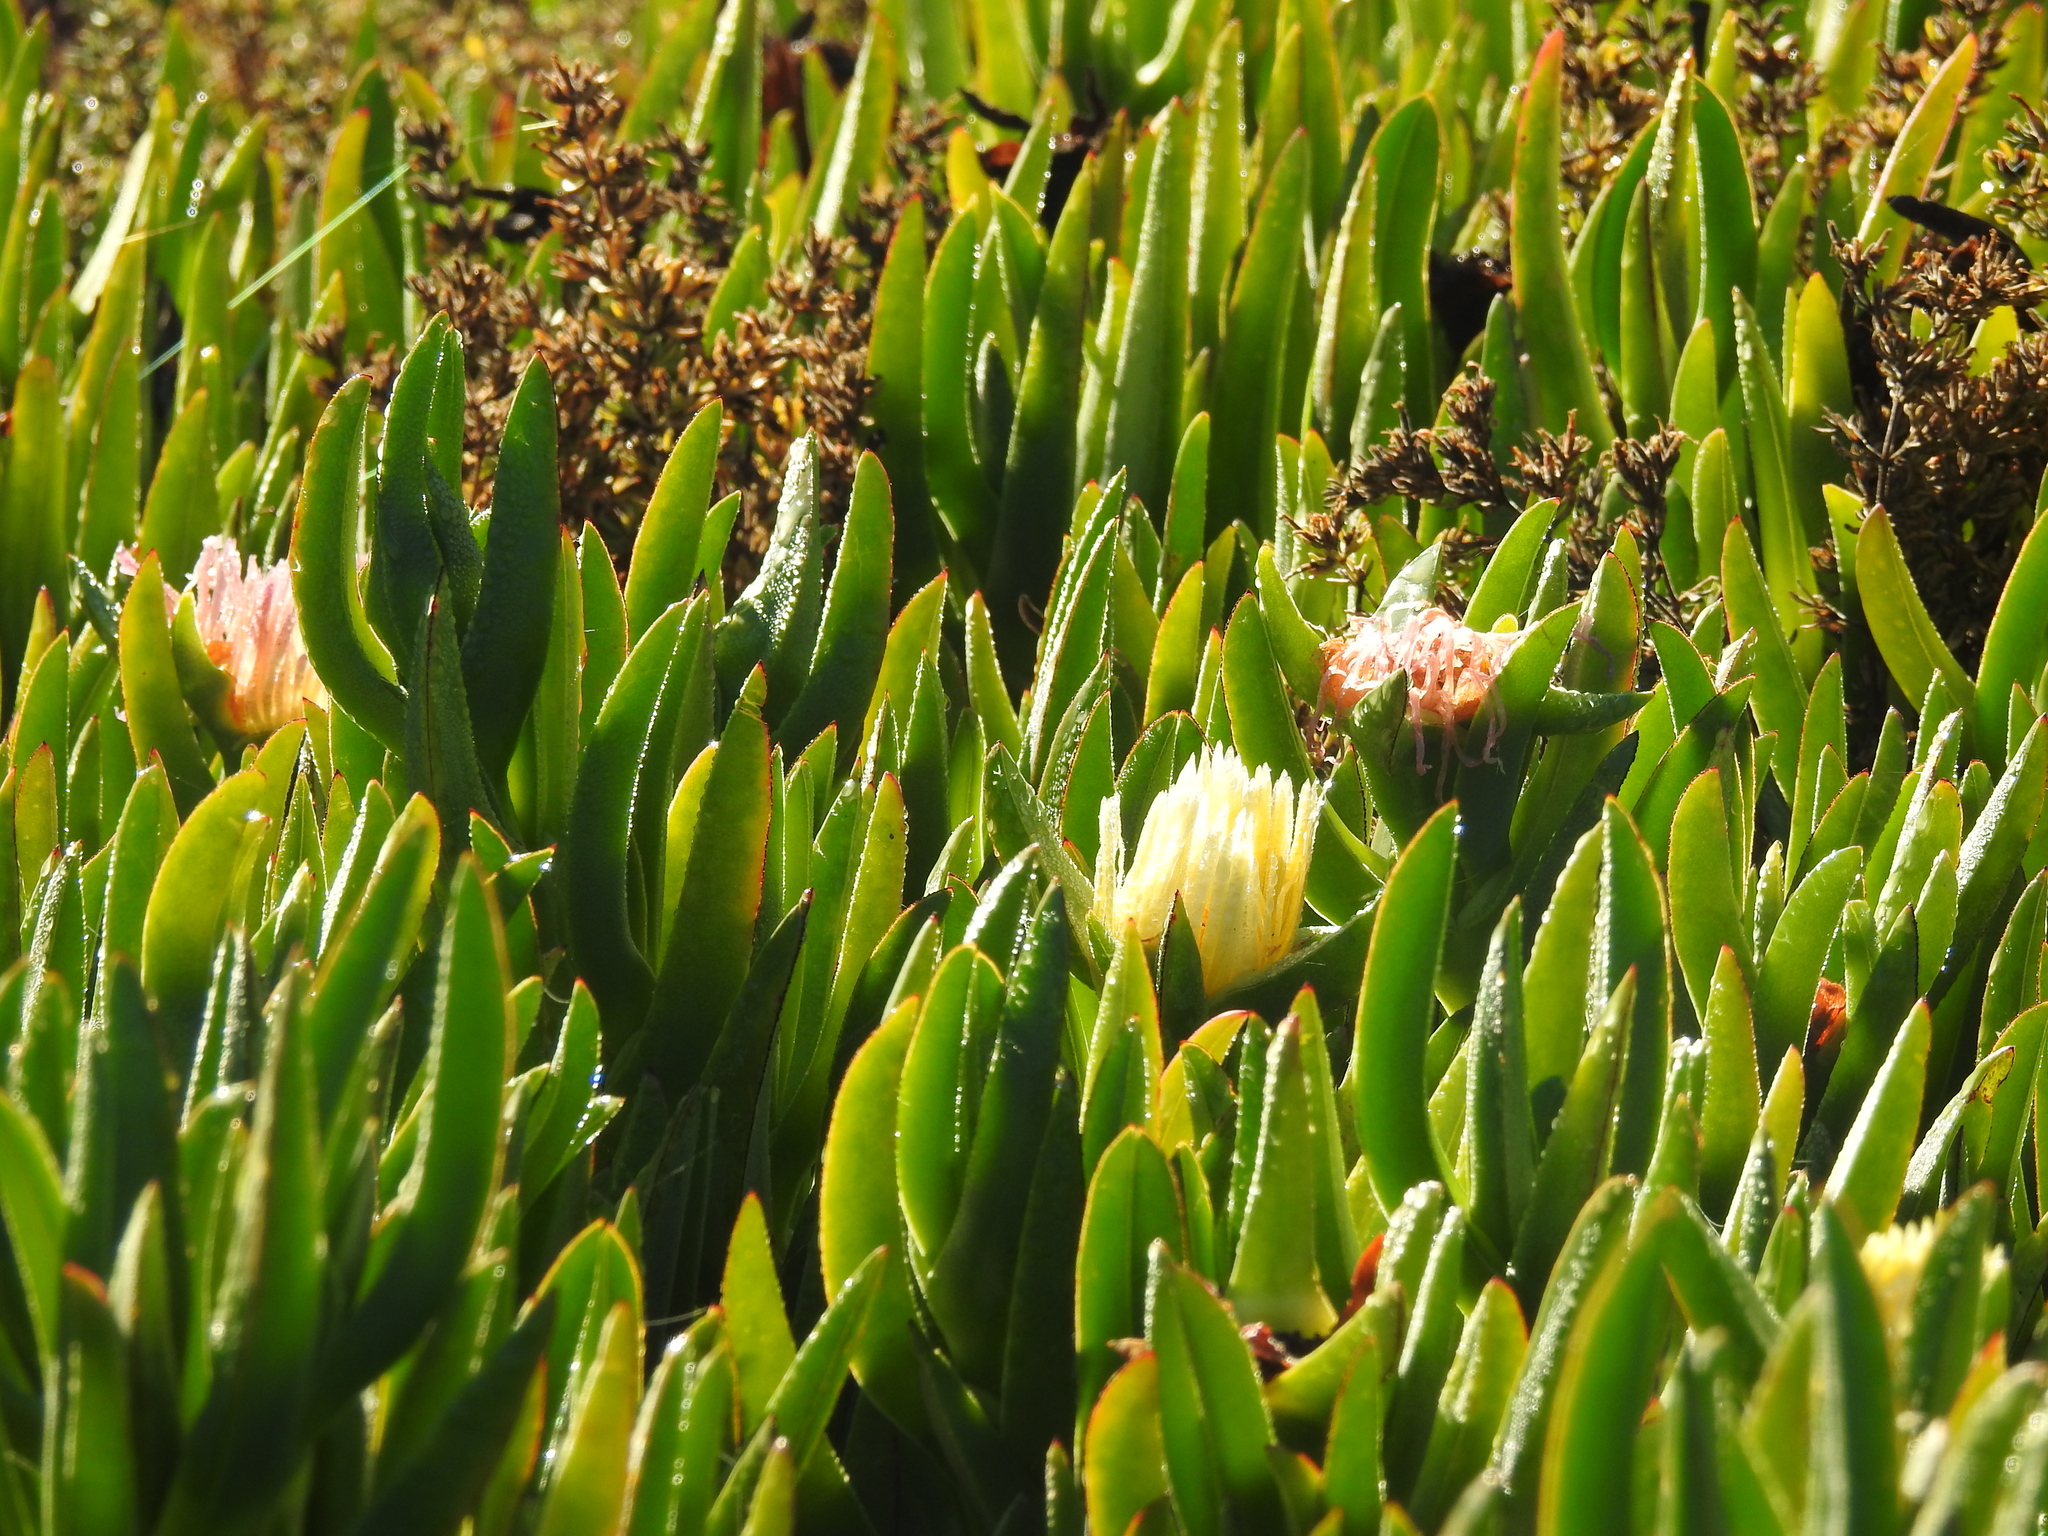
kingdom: Plantae
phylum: Tracheophyta
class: Magnoliopsida
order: Caryophyllales
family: Aizoaceae
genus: Carpobrotus
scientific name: Carpobrotus edulis
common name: Hottentot-fig
